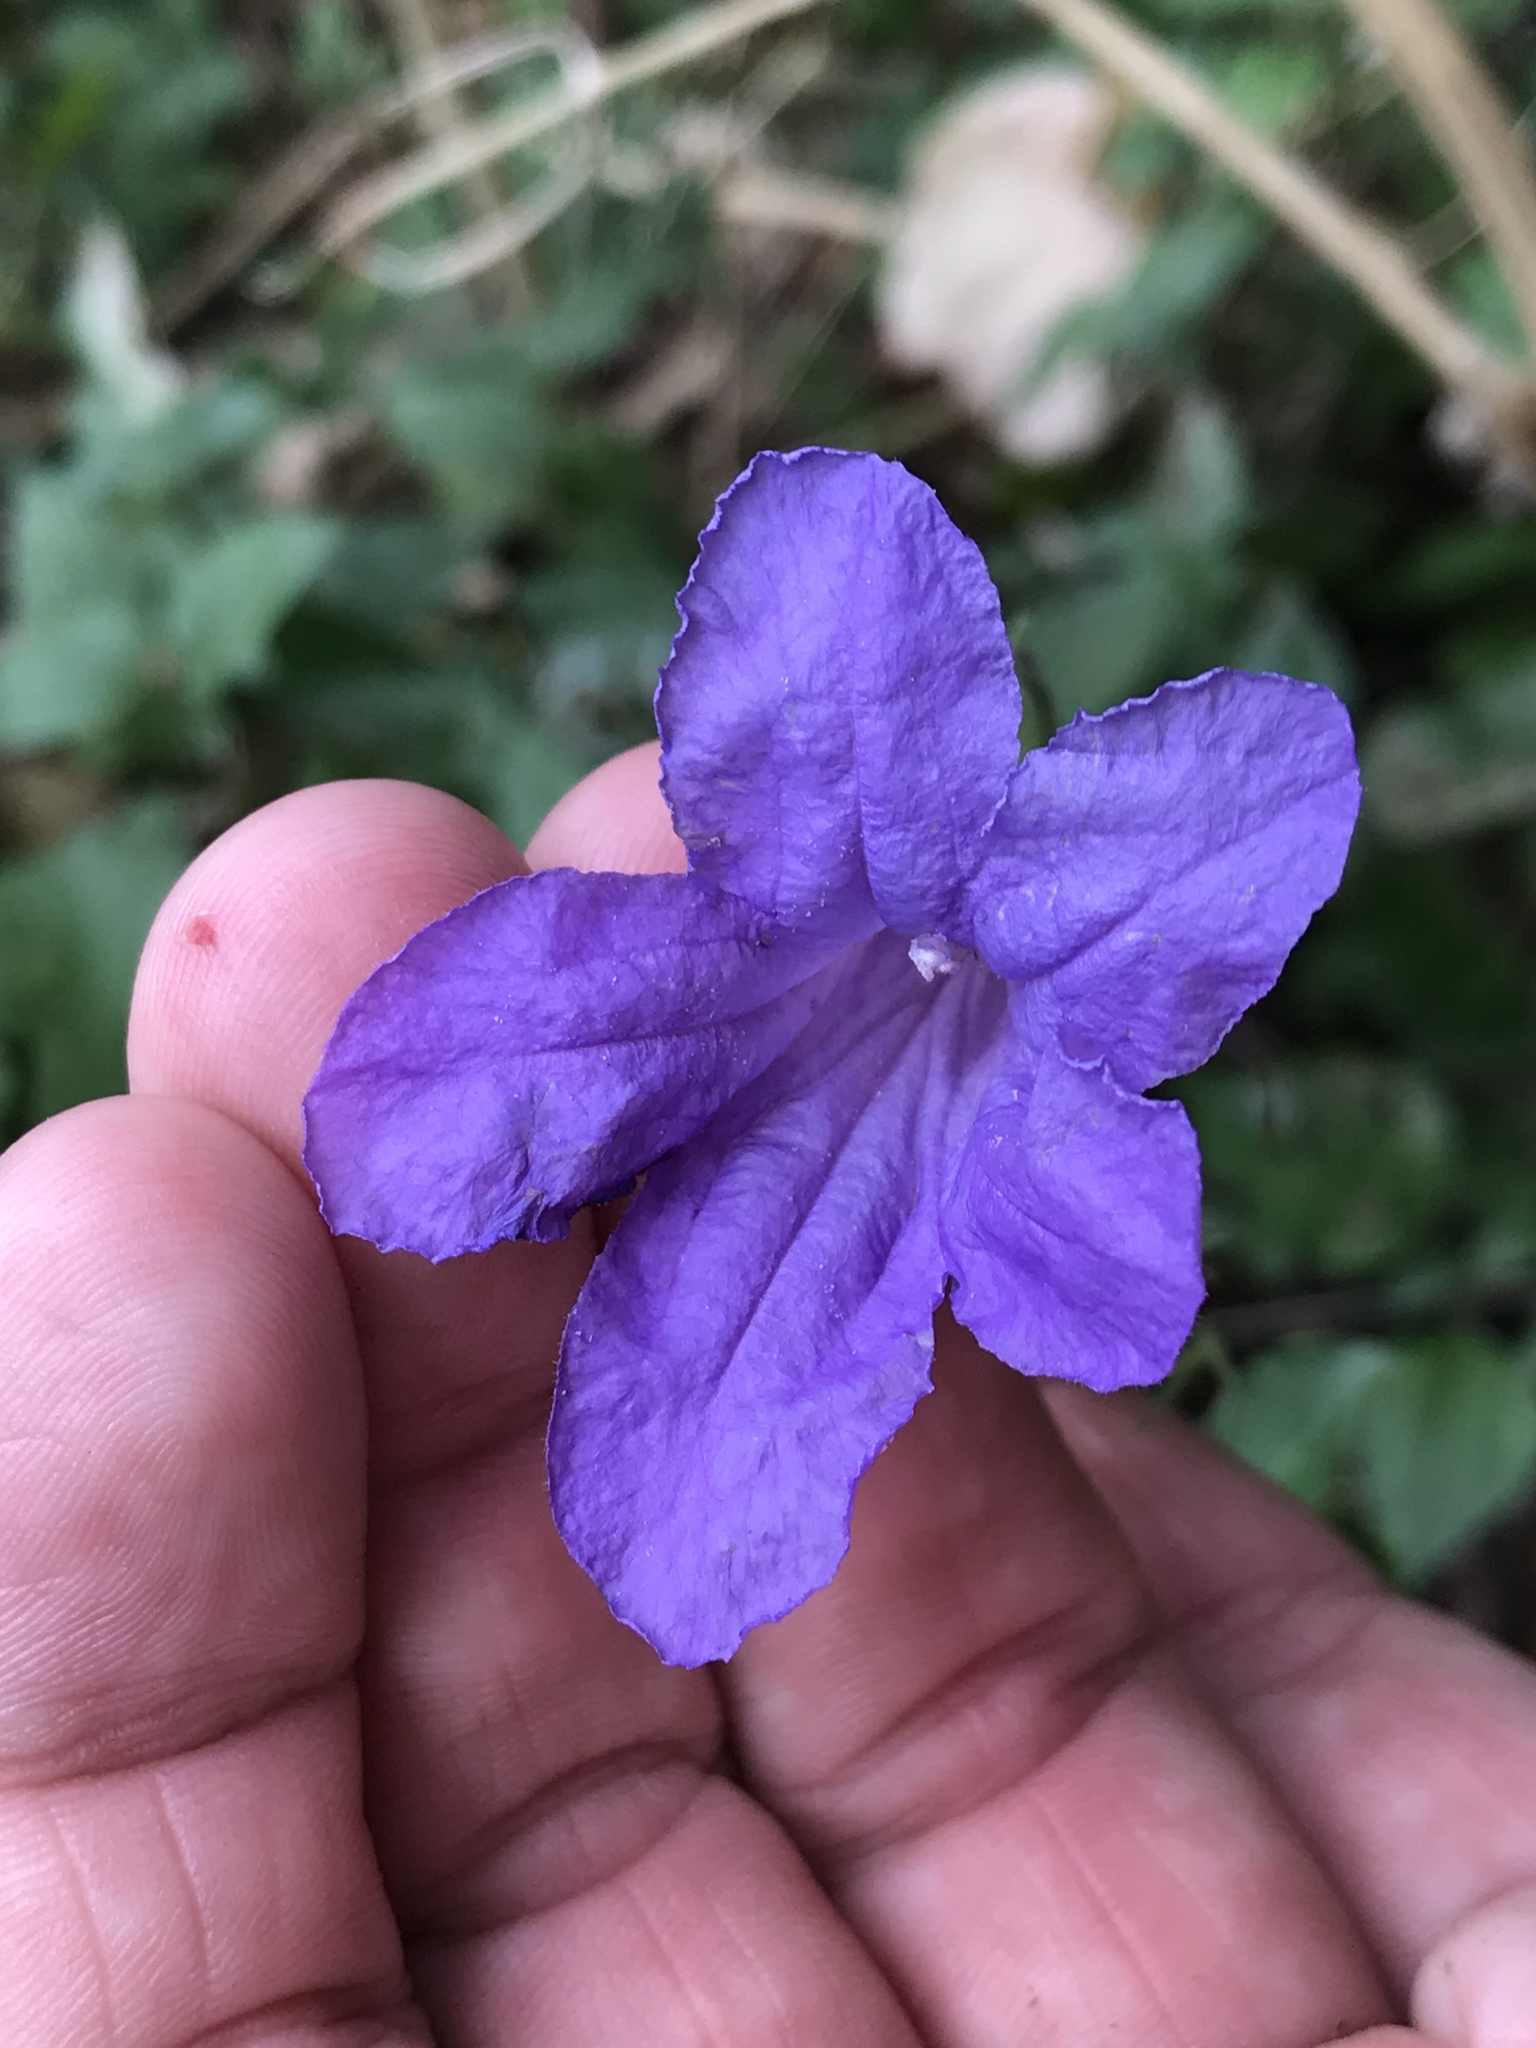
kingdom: Plantae
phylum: Tracheophyta
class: Magnoliopsida
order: Lamiales
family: Acanthaceae
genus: Ruellia
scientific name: Ruellia ciliatiflora
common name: Hairyflower wild petunia
